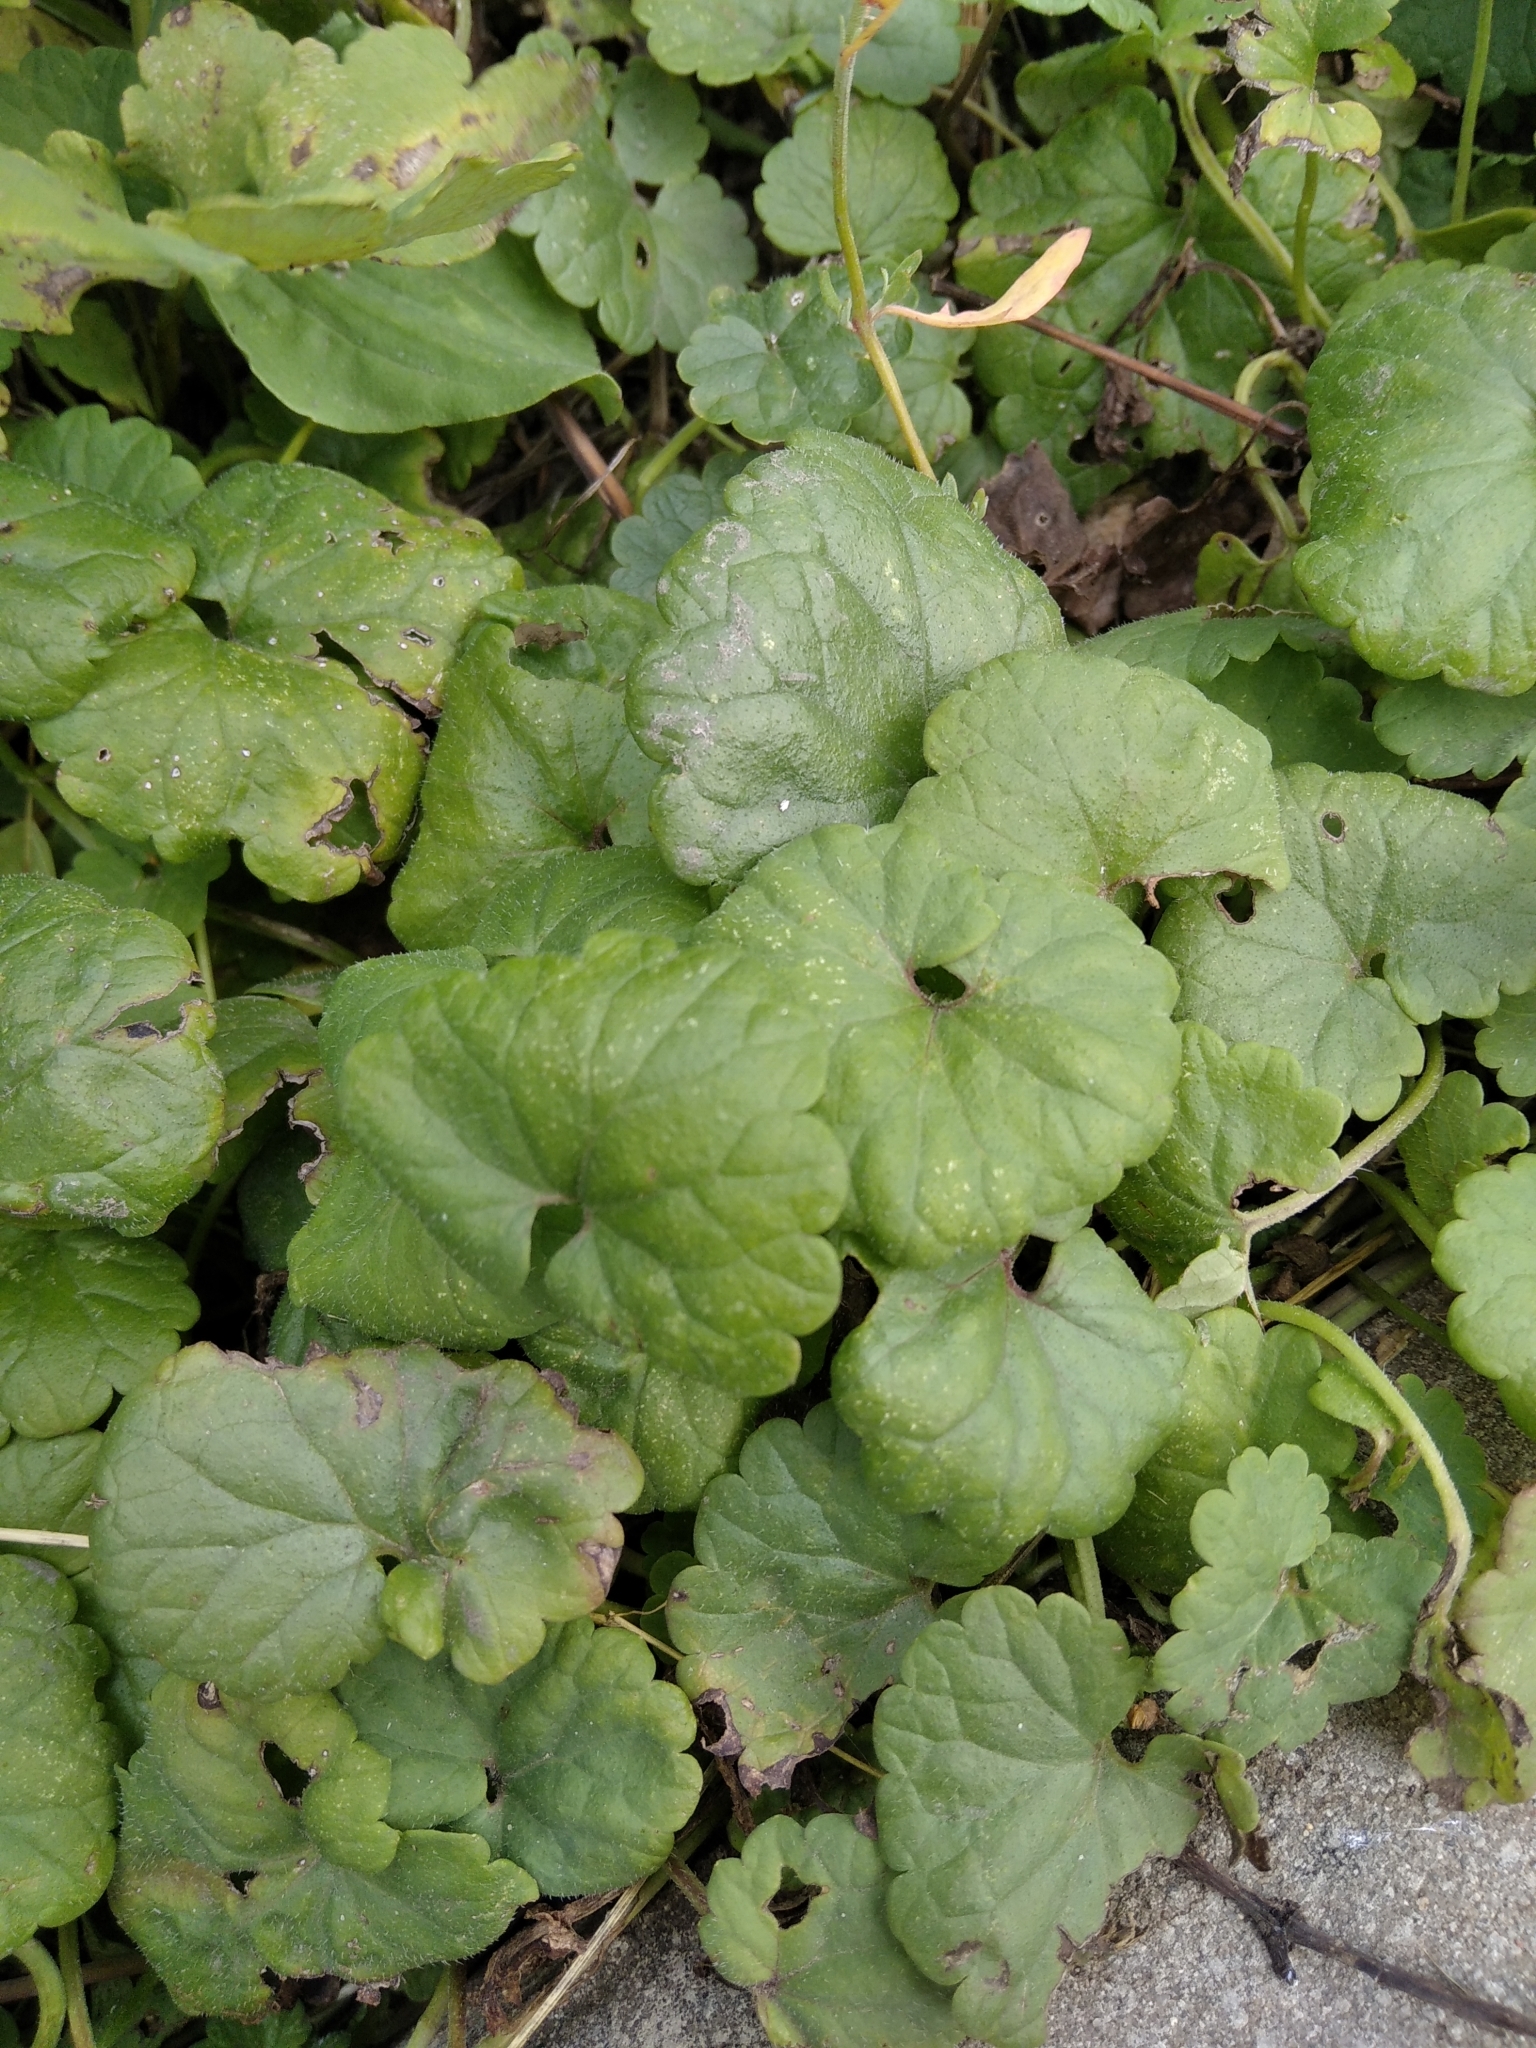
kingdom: Plantae
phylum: Tracheophyta
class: Magnoliopsida
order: Lamiales
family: Lamiaceae
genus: Glechoma
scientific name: Glechoma hederacea
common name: Ground ivy
